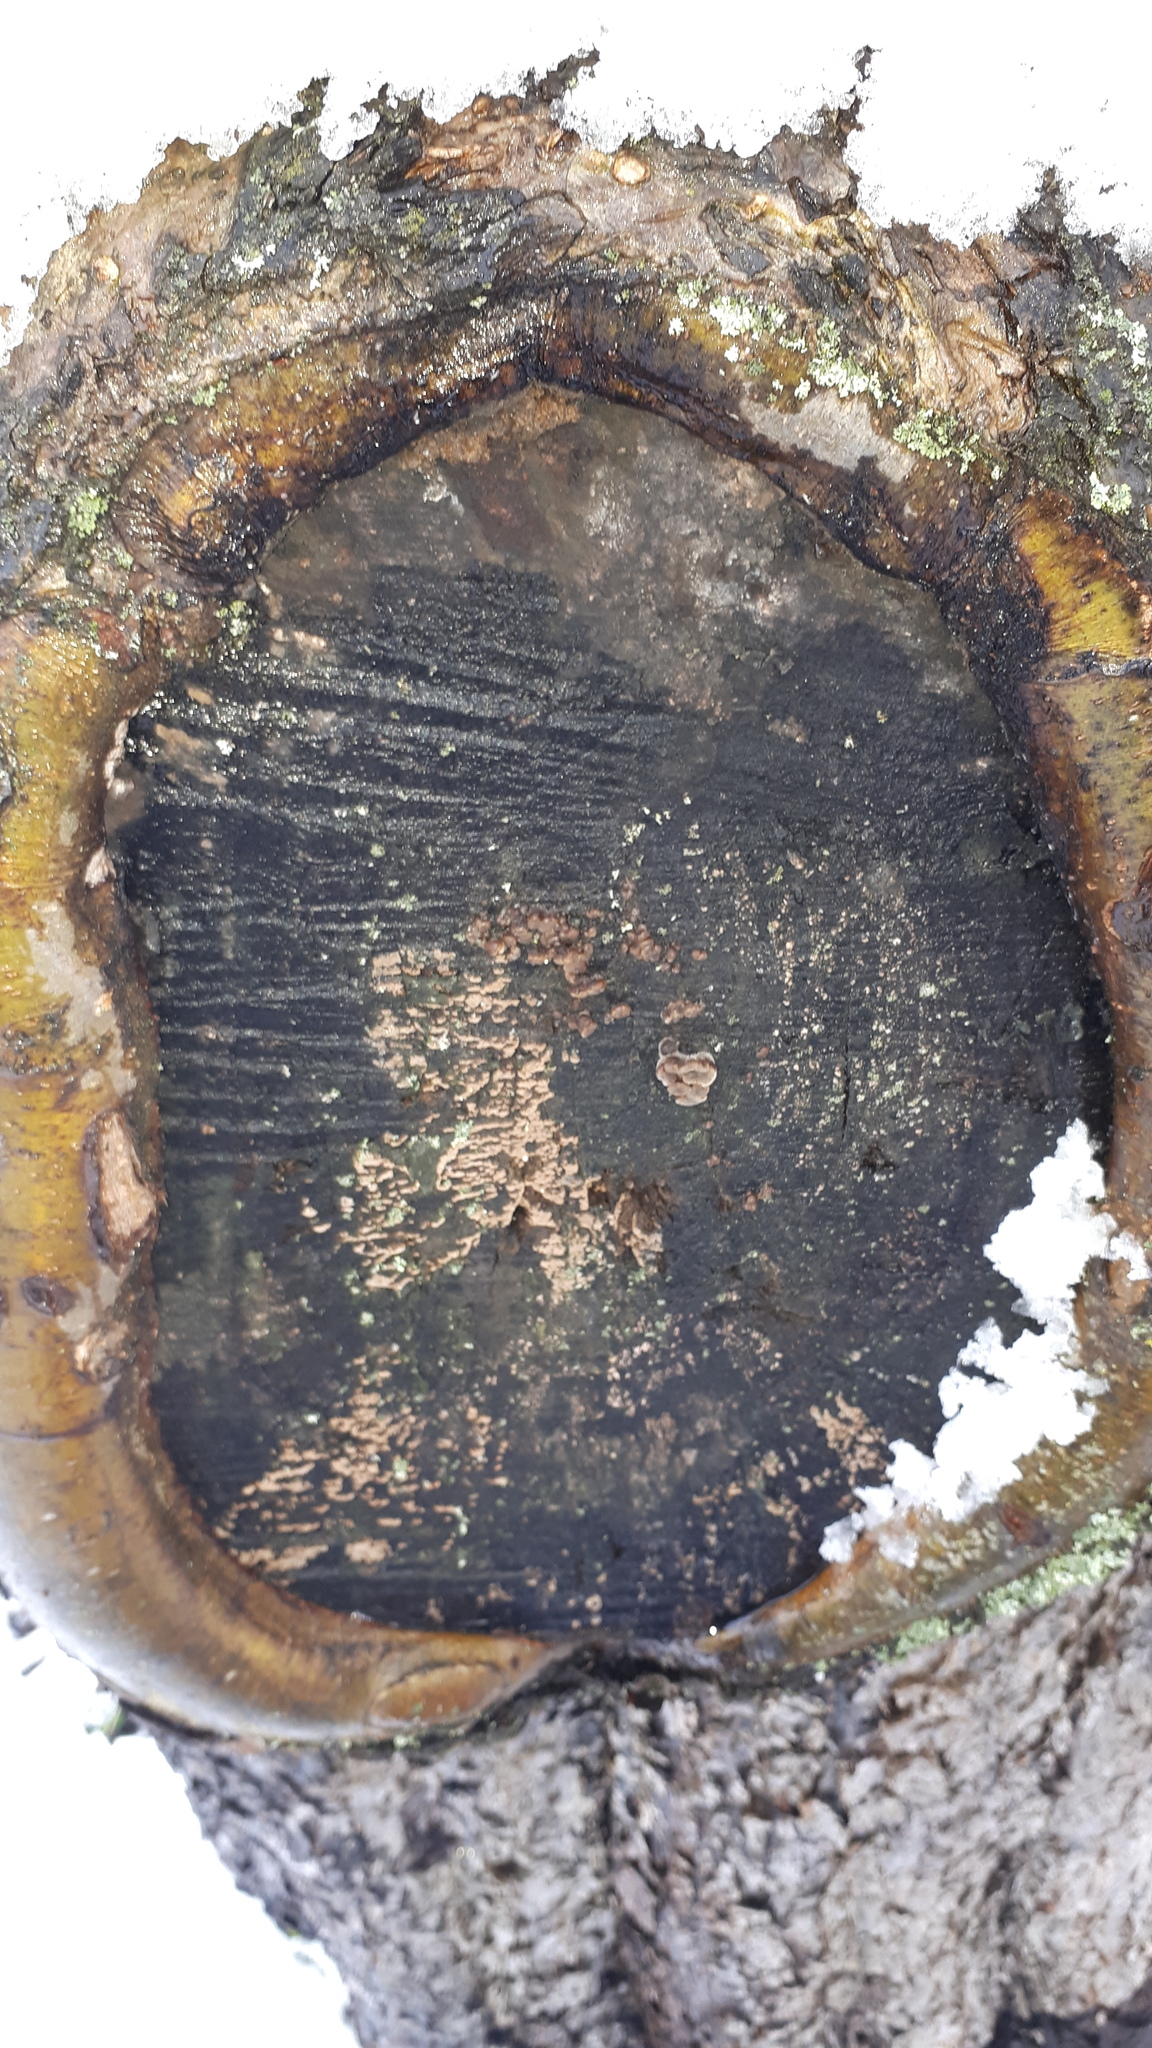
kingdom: Fungi
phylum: Basidiomycota
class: Agaricomycetes
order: Auriculariales
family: Auriculariaceae
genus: Auricularia
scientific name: Auricularia mesenterica
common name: Tripe fungus
